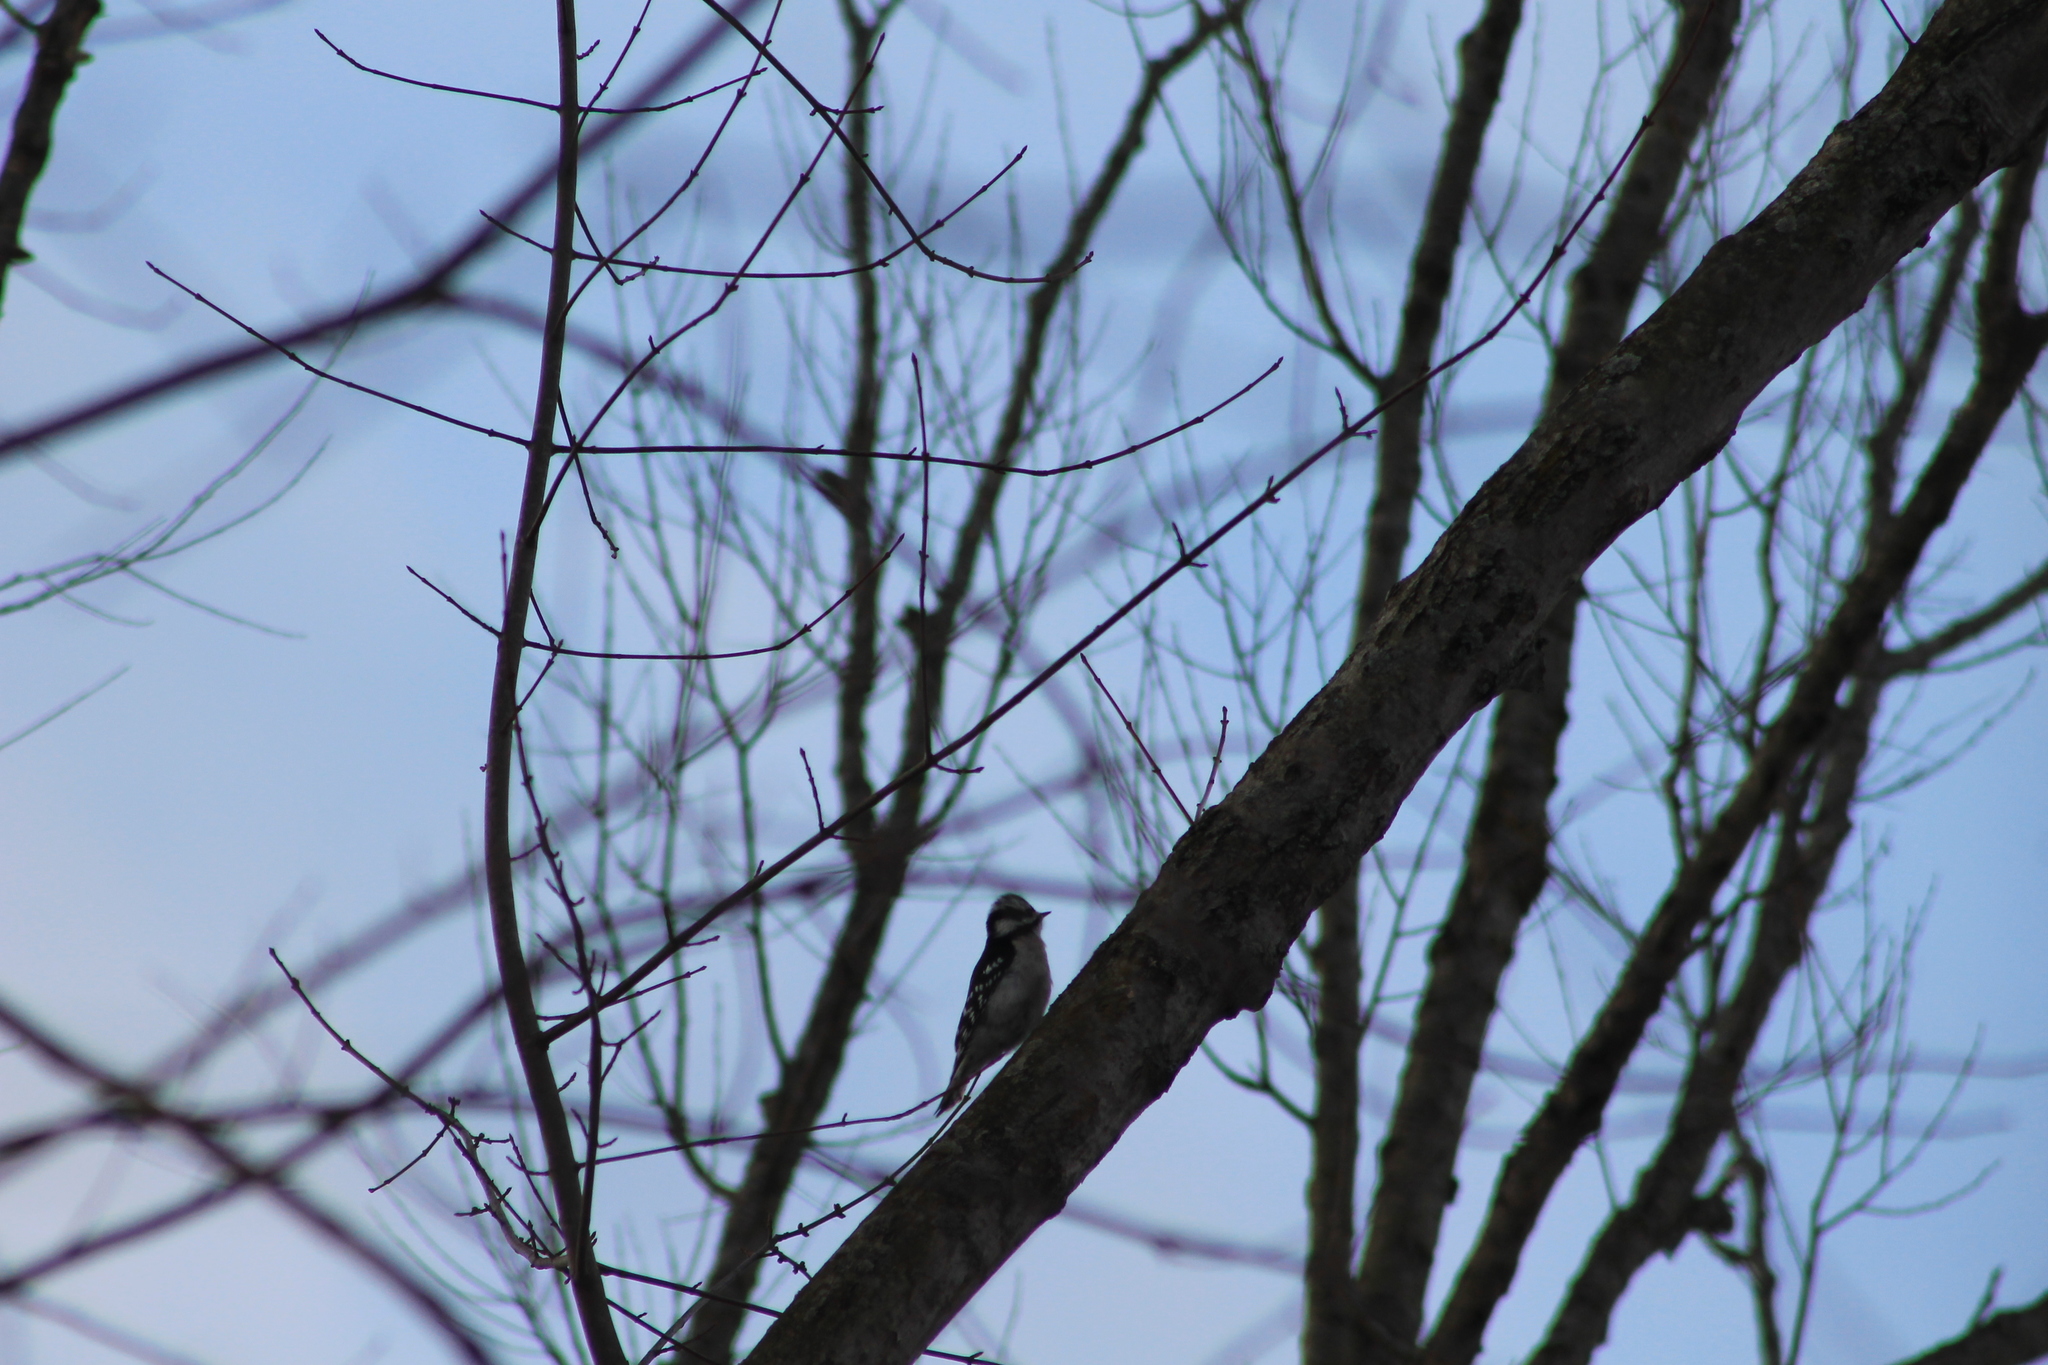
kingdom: Animalia
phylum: Chordata
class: Aves
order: Piciformes
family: Picidae
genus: Dryobates
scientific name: Dryobates pubescens
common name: Downy woodpecker
